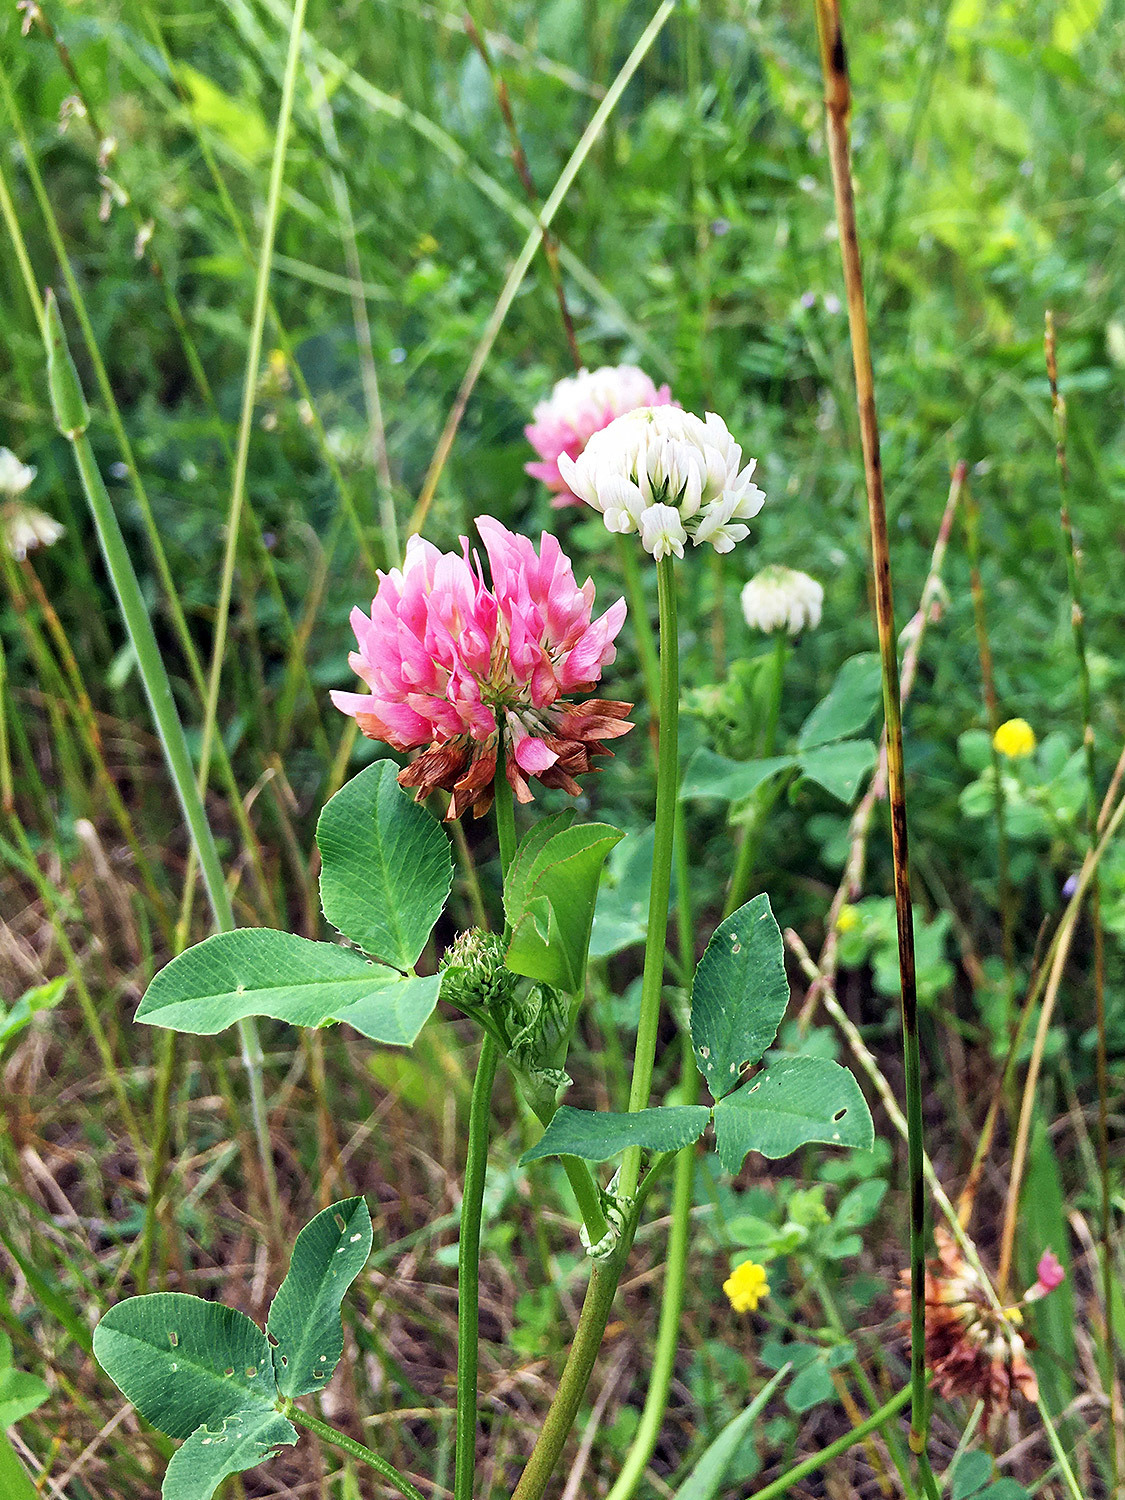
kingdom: Plantae
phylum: Tracheophyta
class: Magnoliopsida
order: Fabales
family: Fabaceae
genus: Trifolium
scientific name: Trifolium hybridum
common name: Alsike clover
